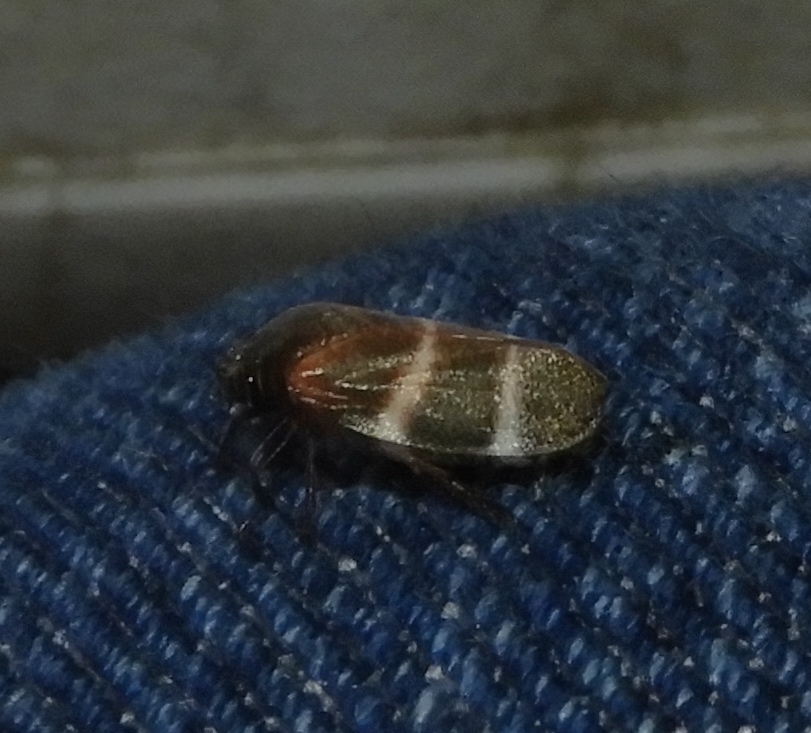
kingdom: Animalia
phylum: Arthropoda
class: Insecta
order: Hemiptera
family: Cercopidae
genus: Aeneolamia
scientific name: Aeneolamia albofasciata
